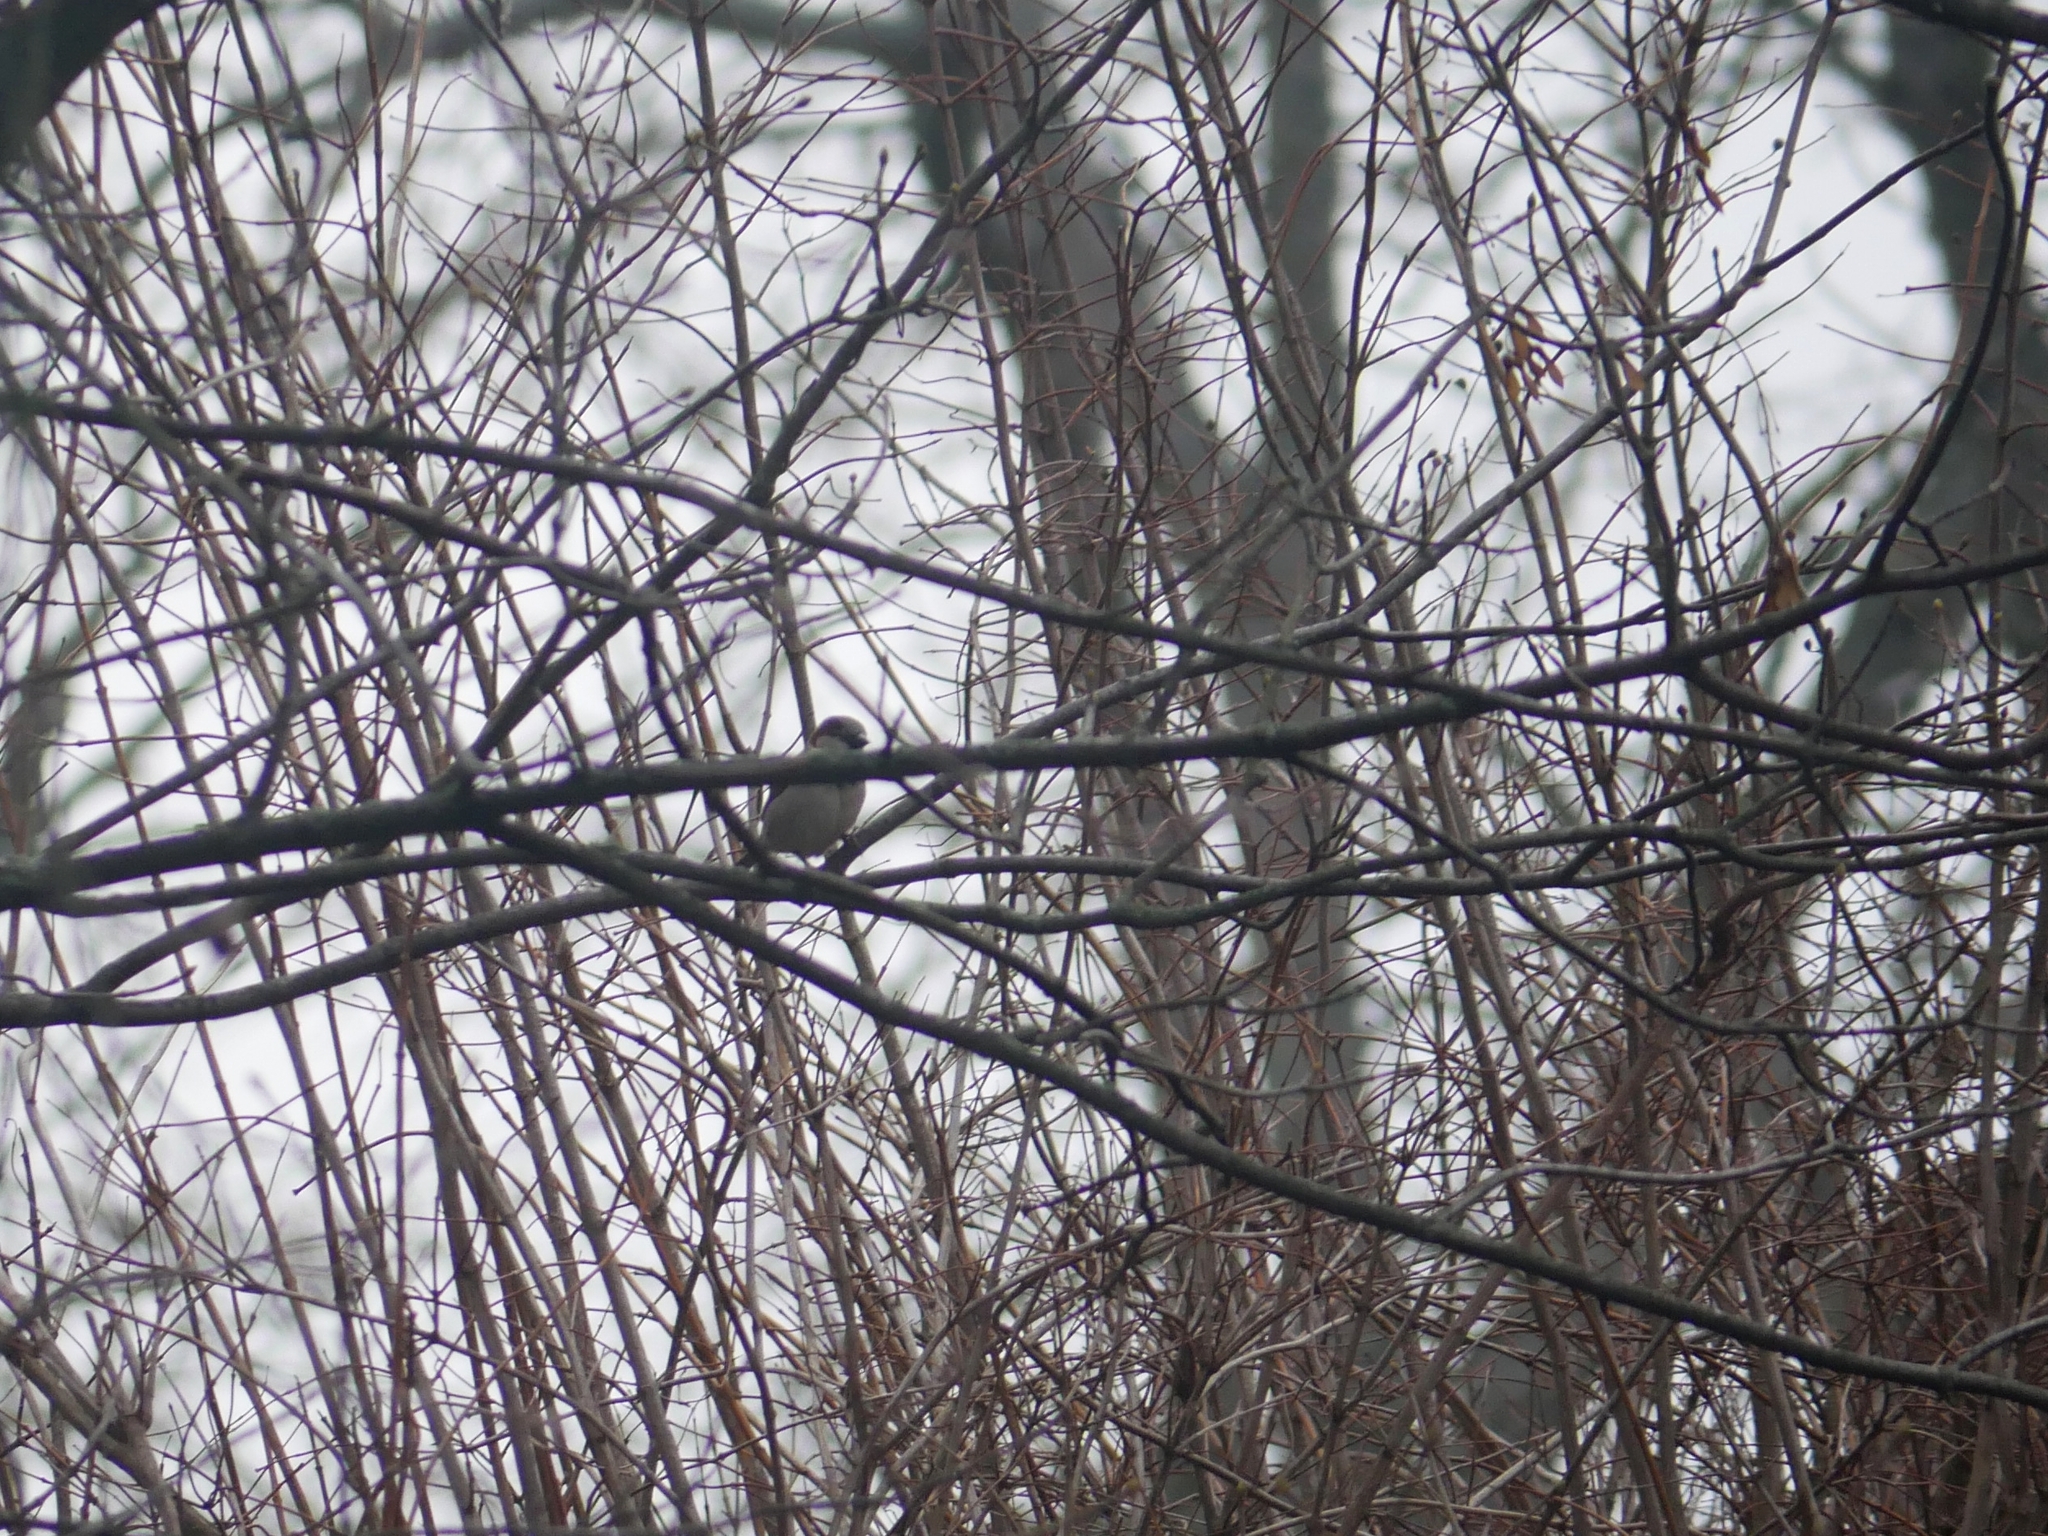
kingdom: Animalia
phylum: Chordata
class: Aves
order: Passeriformes
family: Passeridae
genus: Passer
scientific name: Passer domesticus
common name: House sparrow
